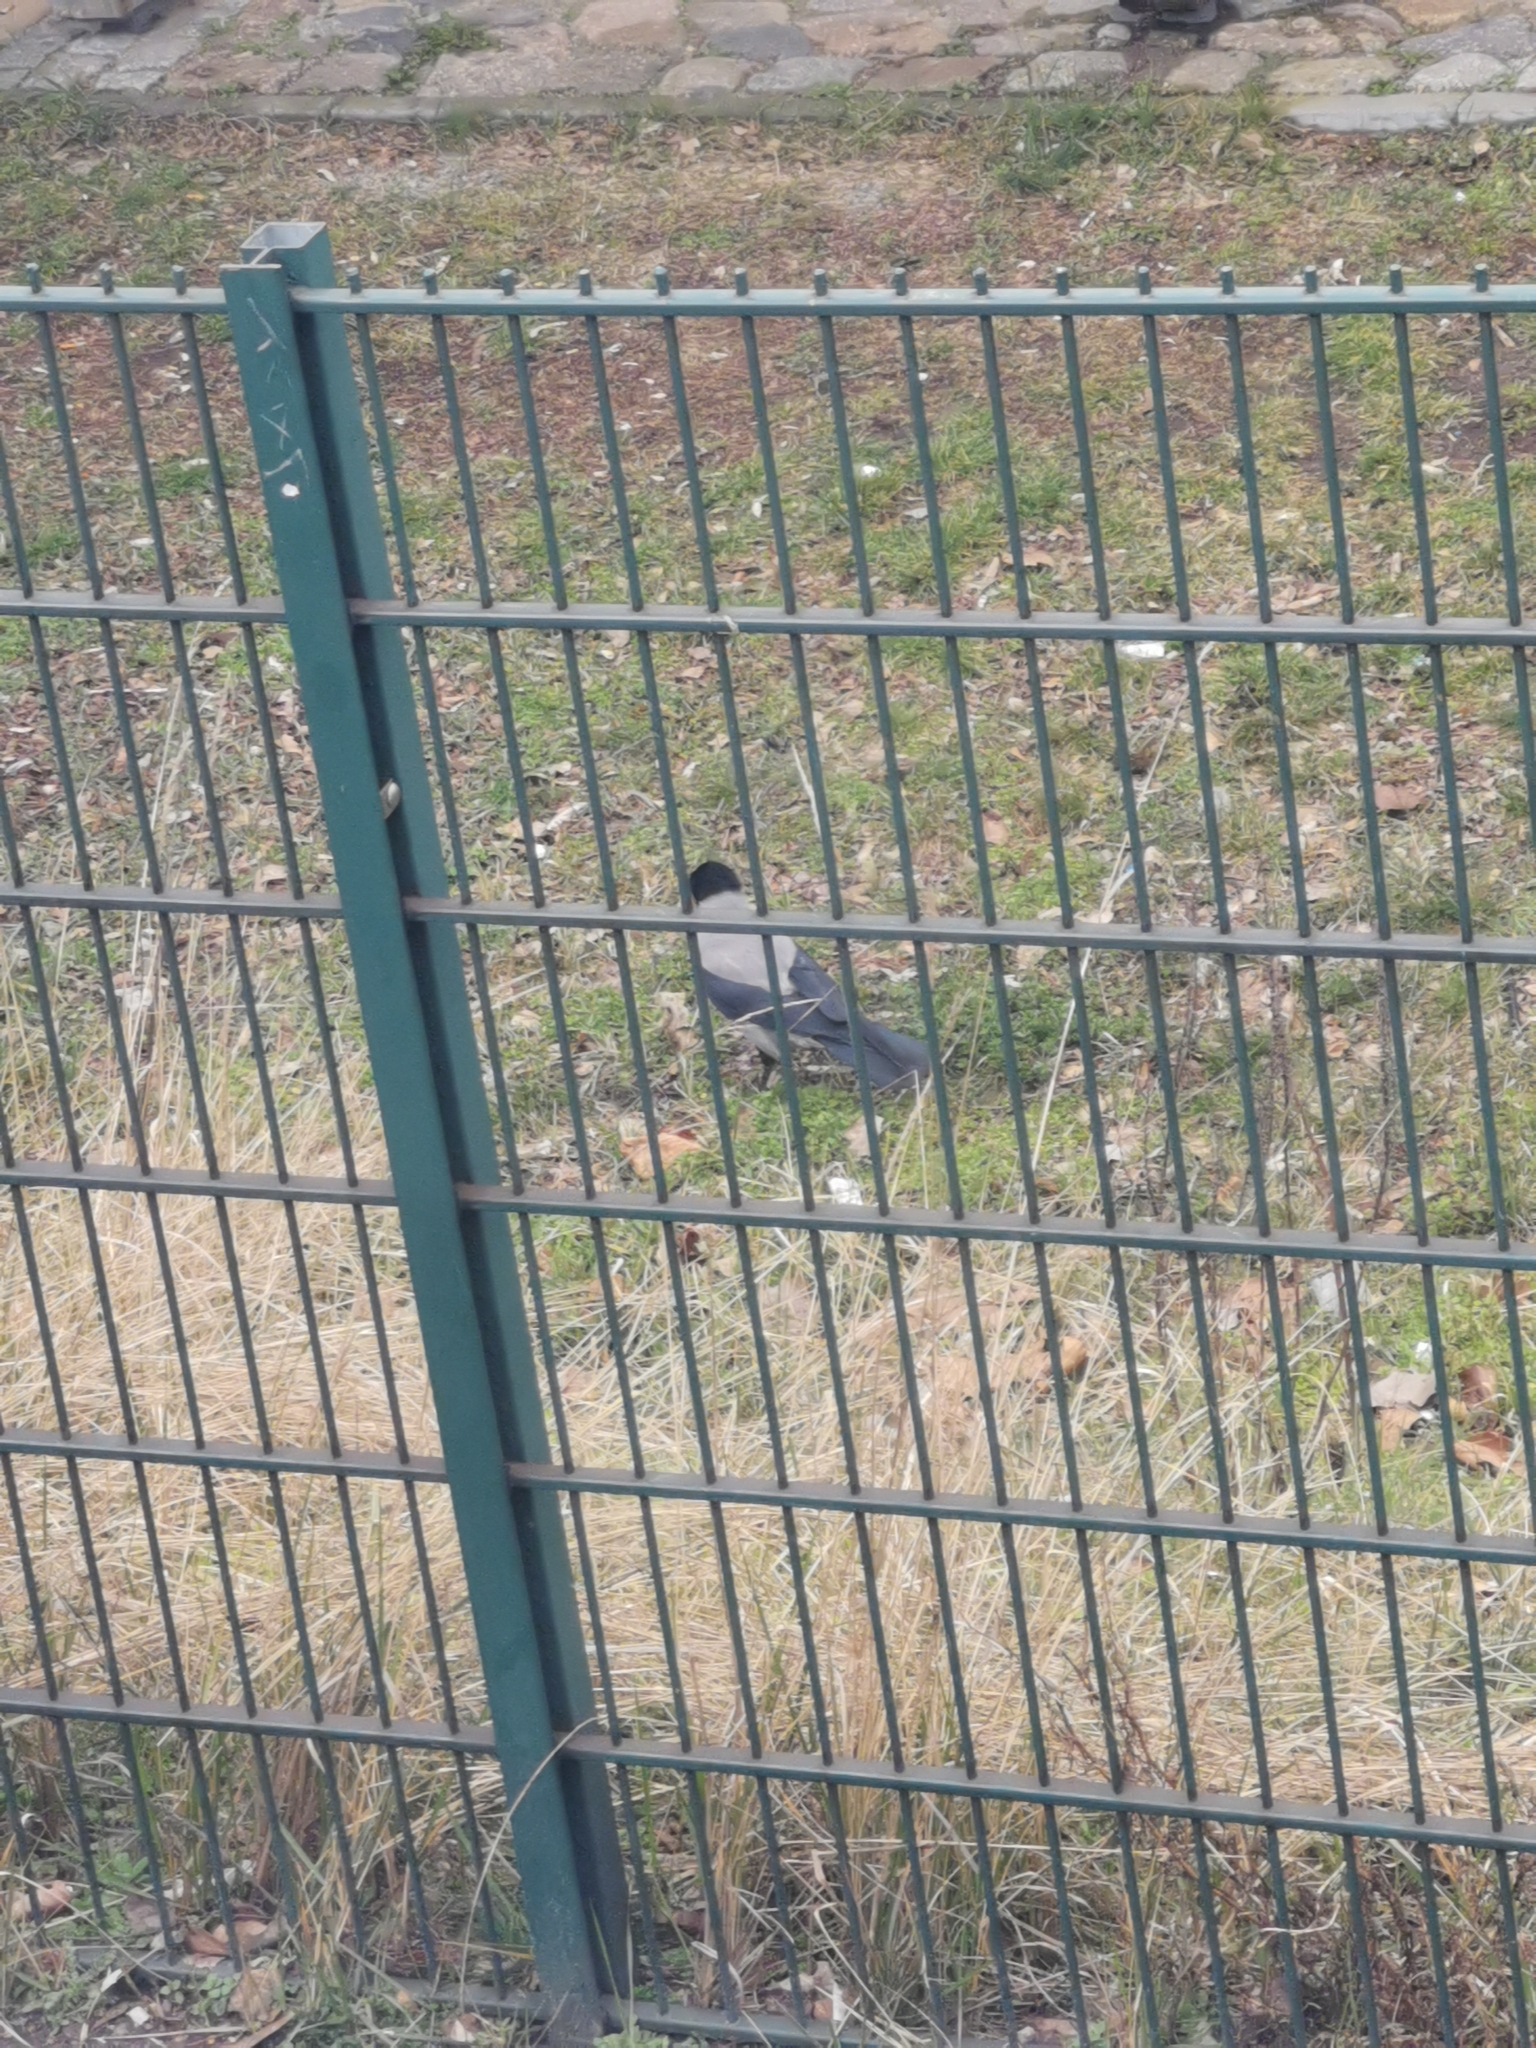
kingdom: Animalia
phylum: Chordata
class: Aves
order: Passeriformes
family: Corvidae
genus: Corvus
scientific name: Corvus cornix
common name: Hooded crow
